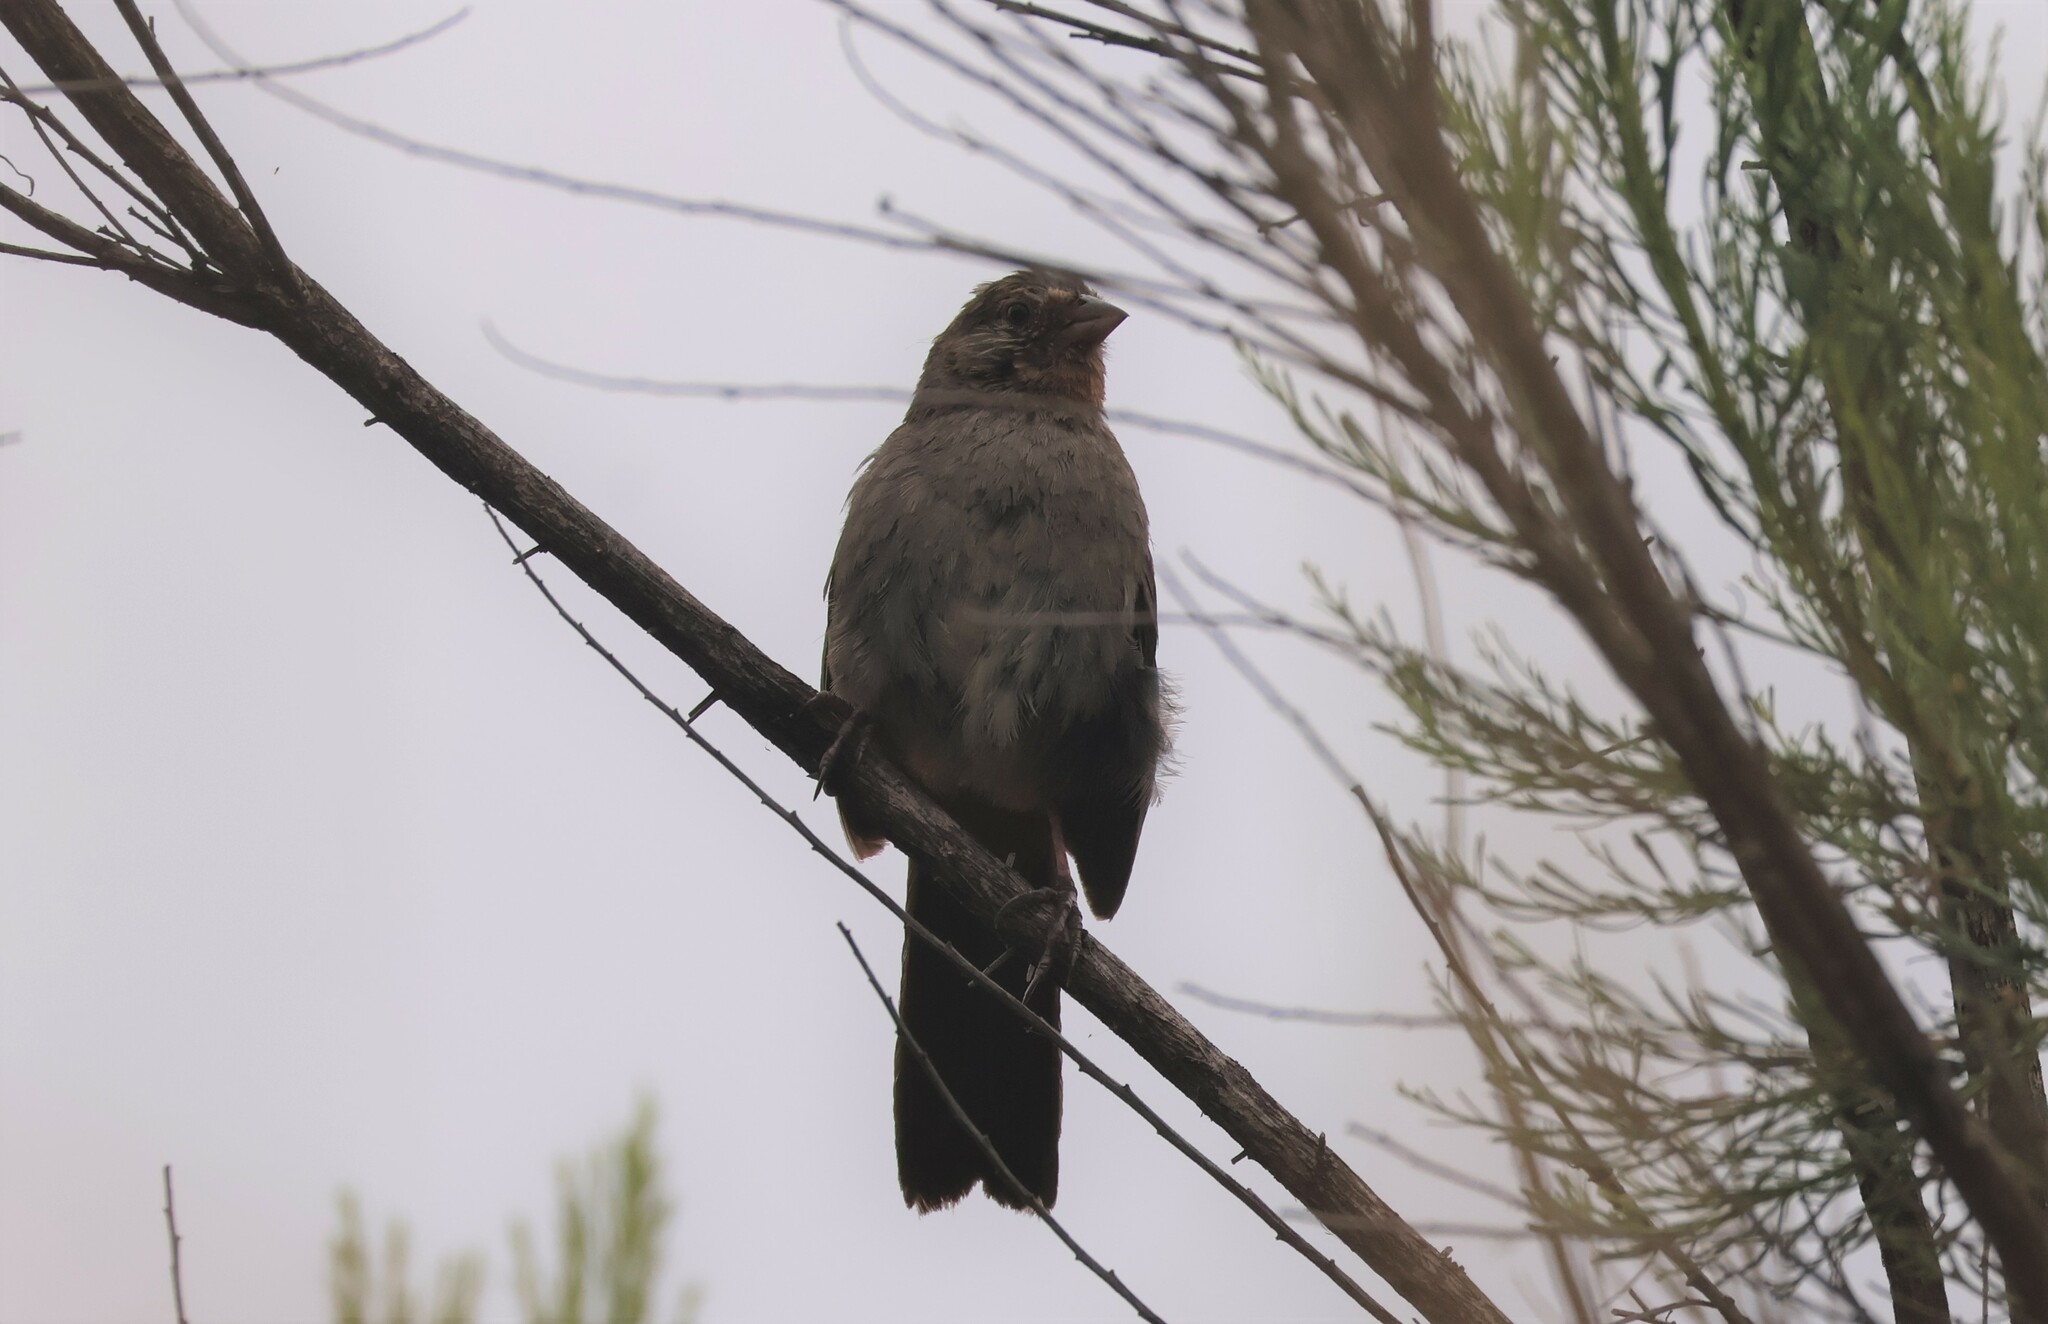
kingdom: Animalia
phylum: Chordata
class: Aves
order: Passeriformes
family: Passerellidae
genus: Melozone
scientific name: Melozone crissalis
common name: California towhee
